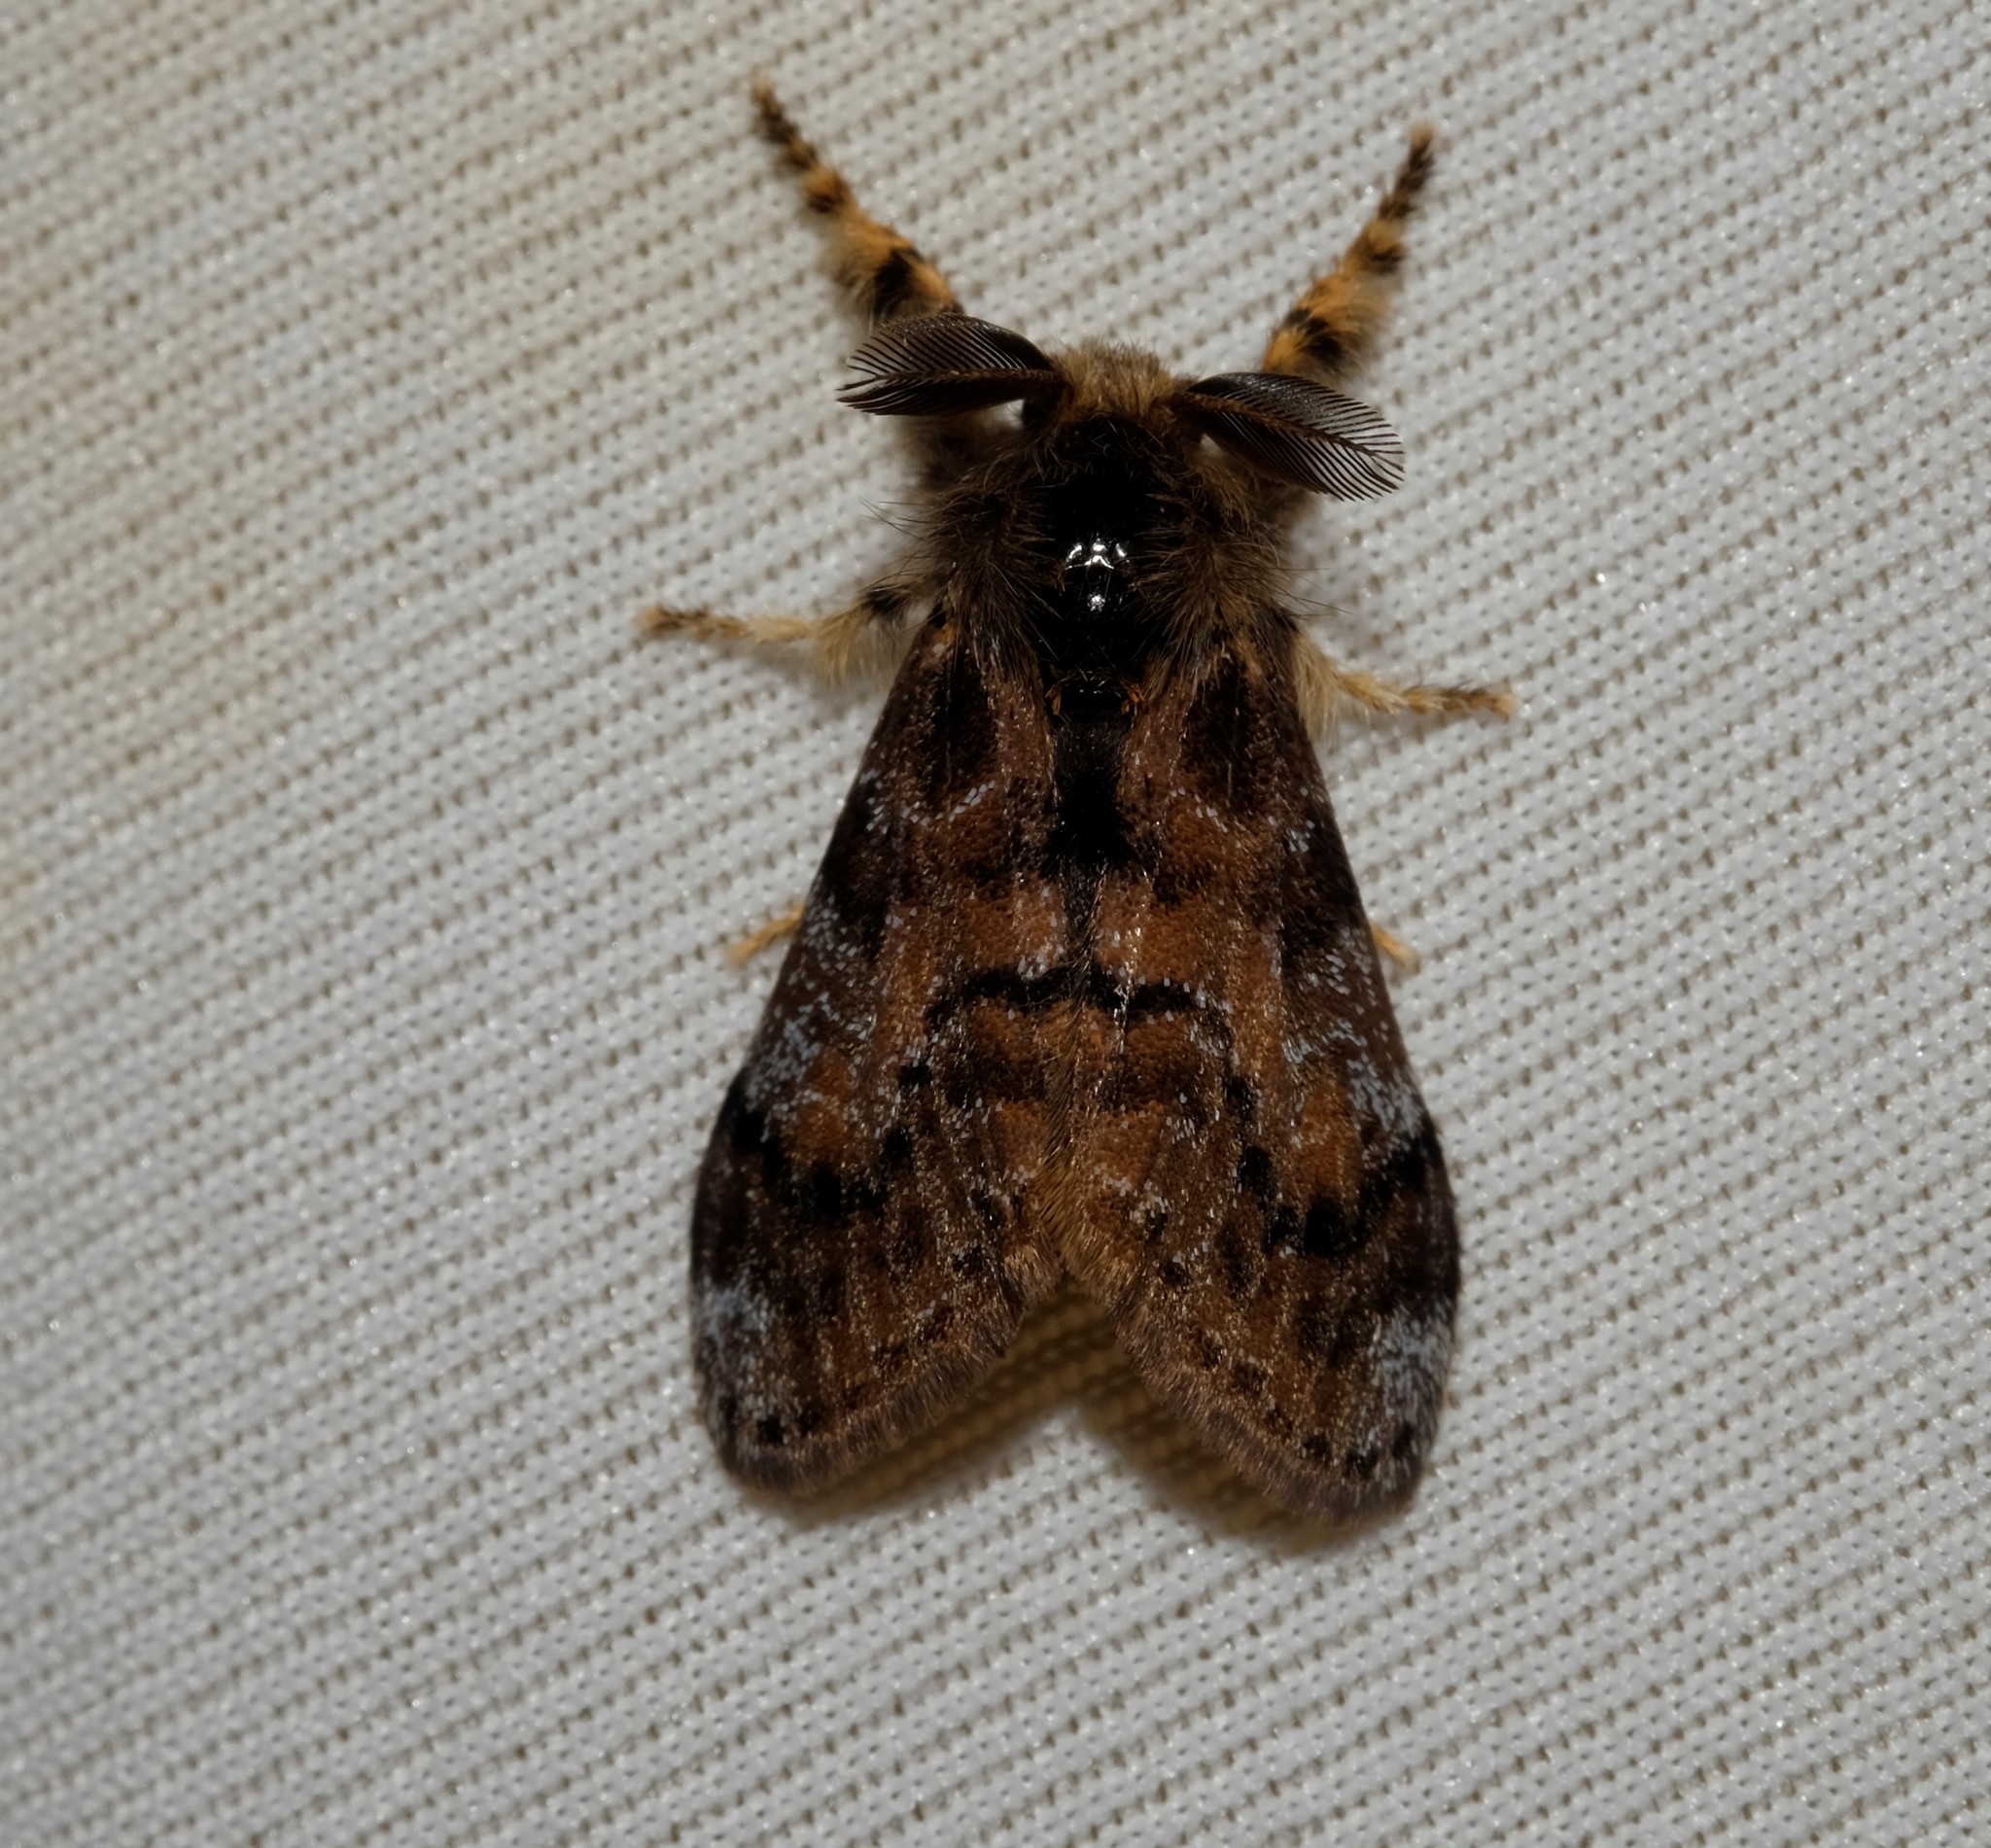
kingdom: Animalia
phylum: Arthropoda
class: Insecta
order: Lepidoptera
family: Erebidae
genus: Orgyia
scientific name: Orgyia
